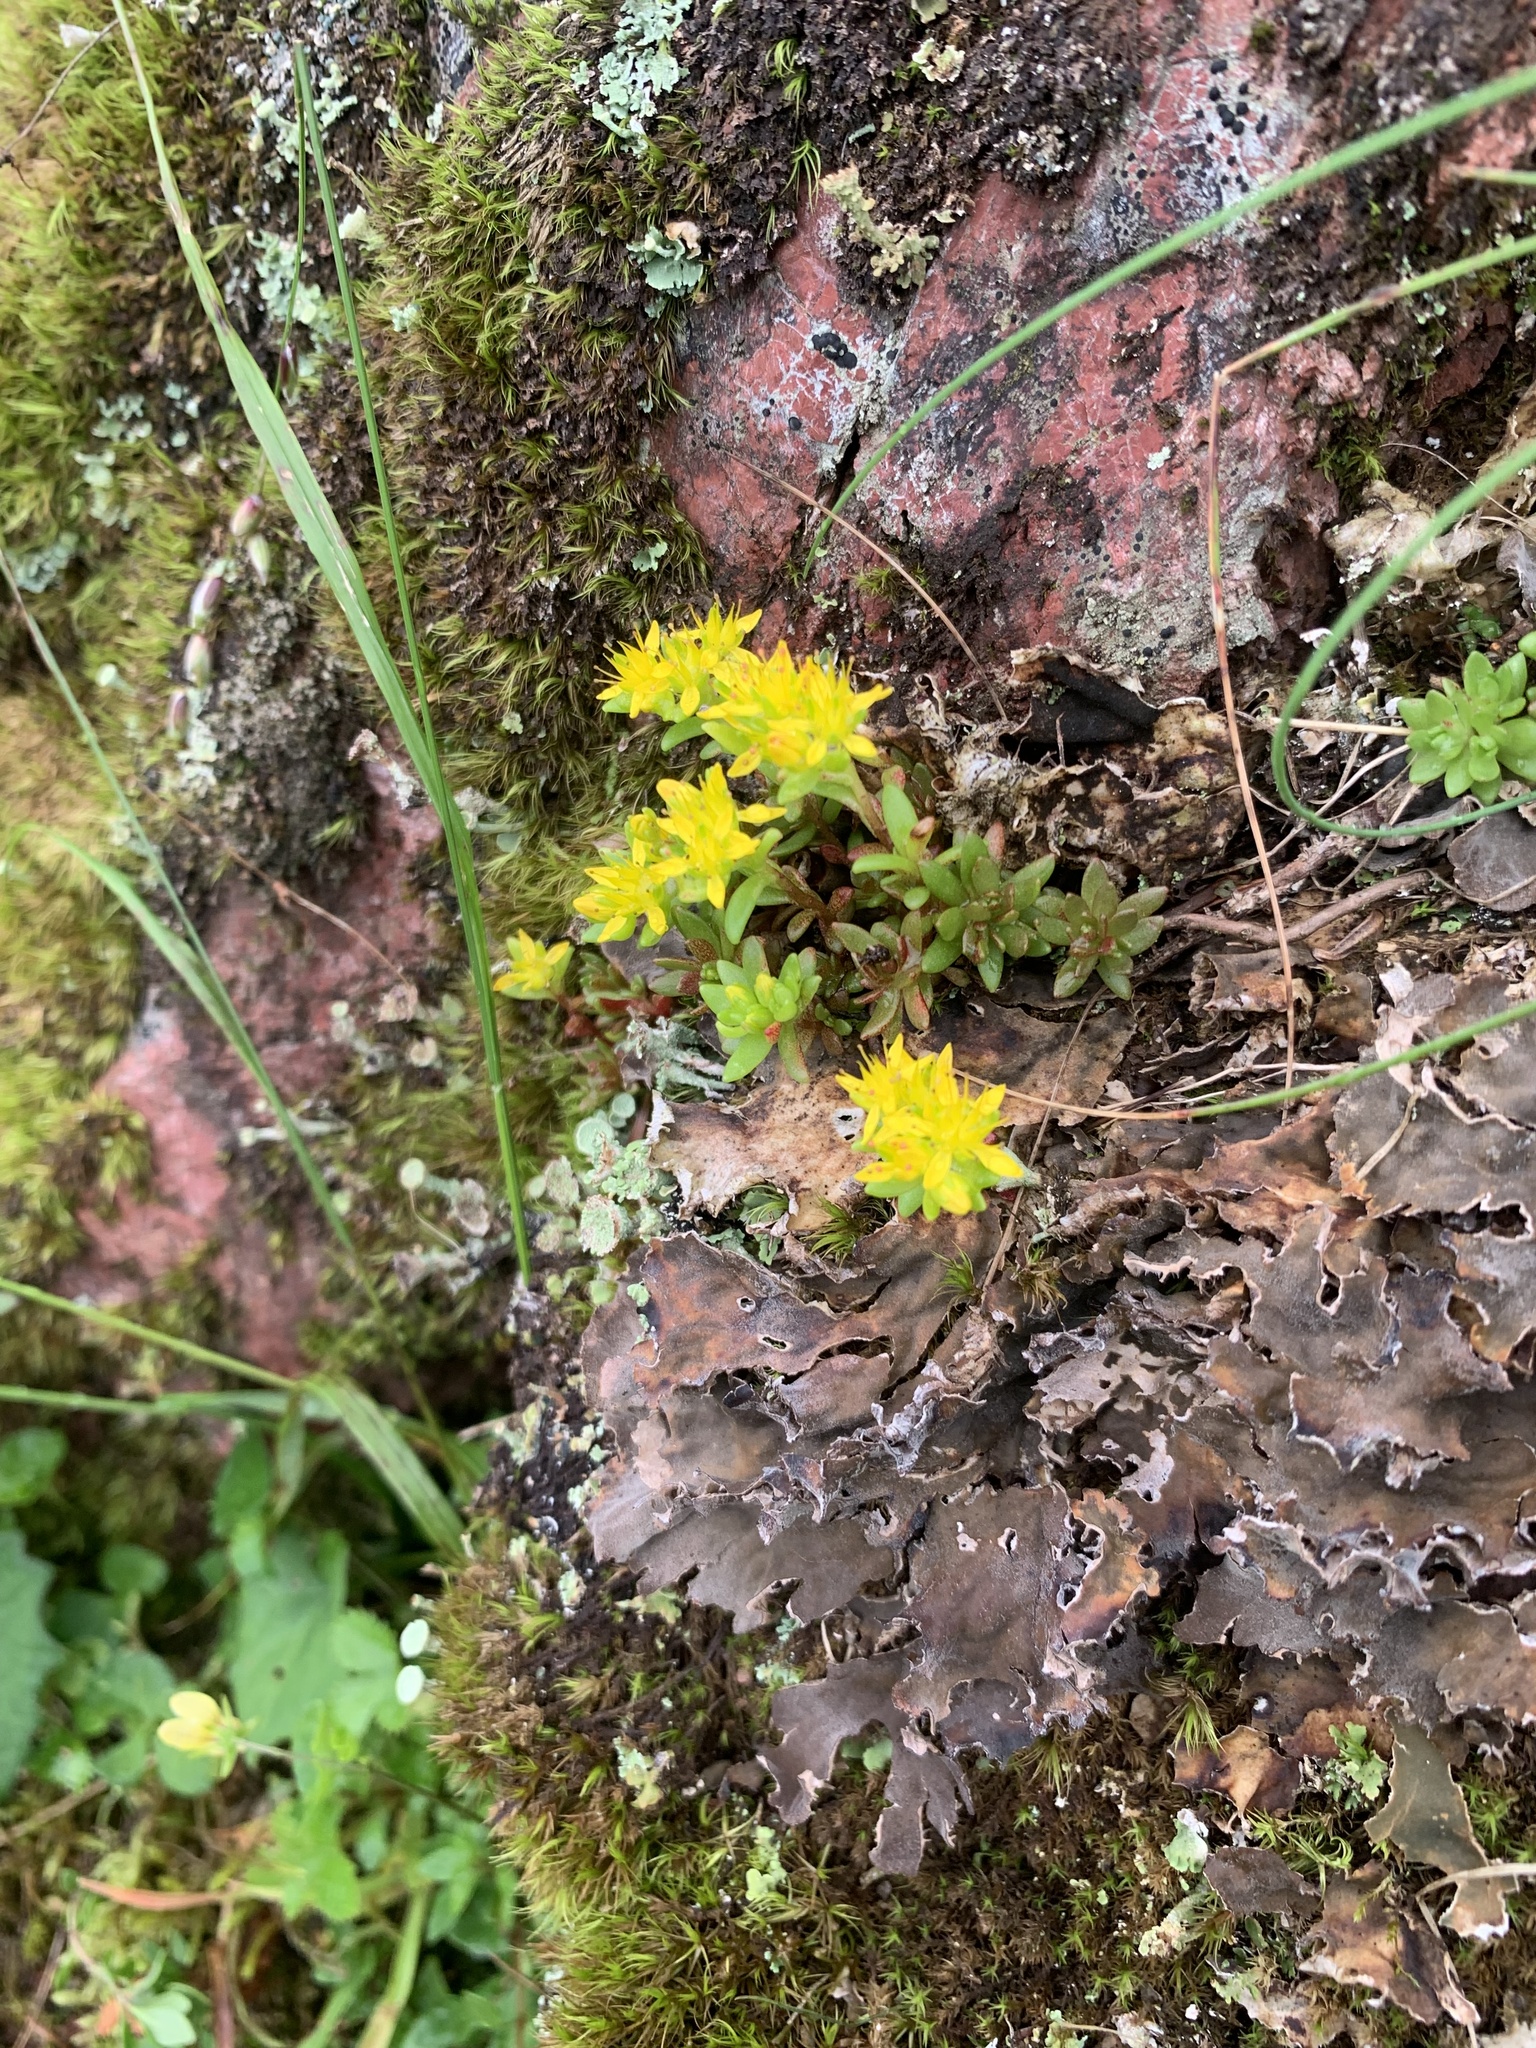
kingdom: Plantae
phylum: Tracheophyta
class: Magnoliopsida
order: Saxifragales
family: Crassulaceae
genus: Sedum
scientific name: Sedum japonicum
